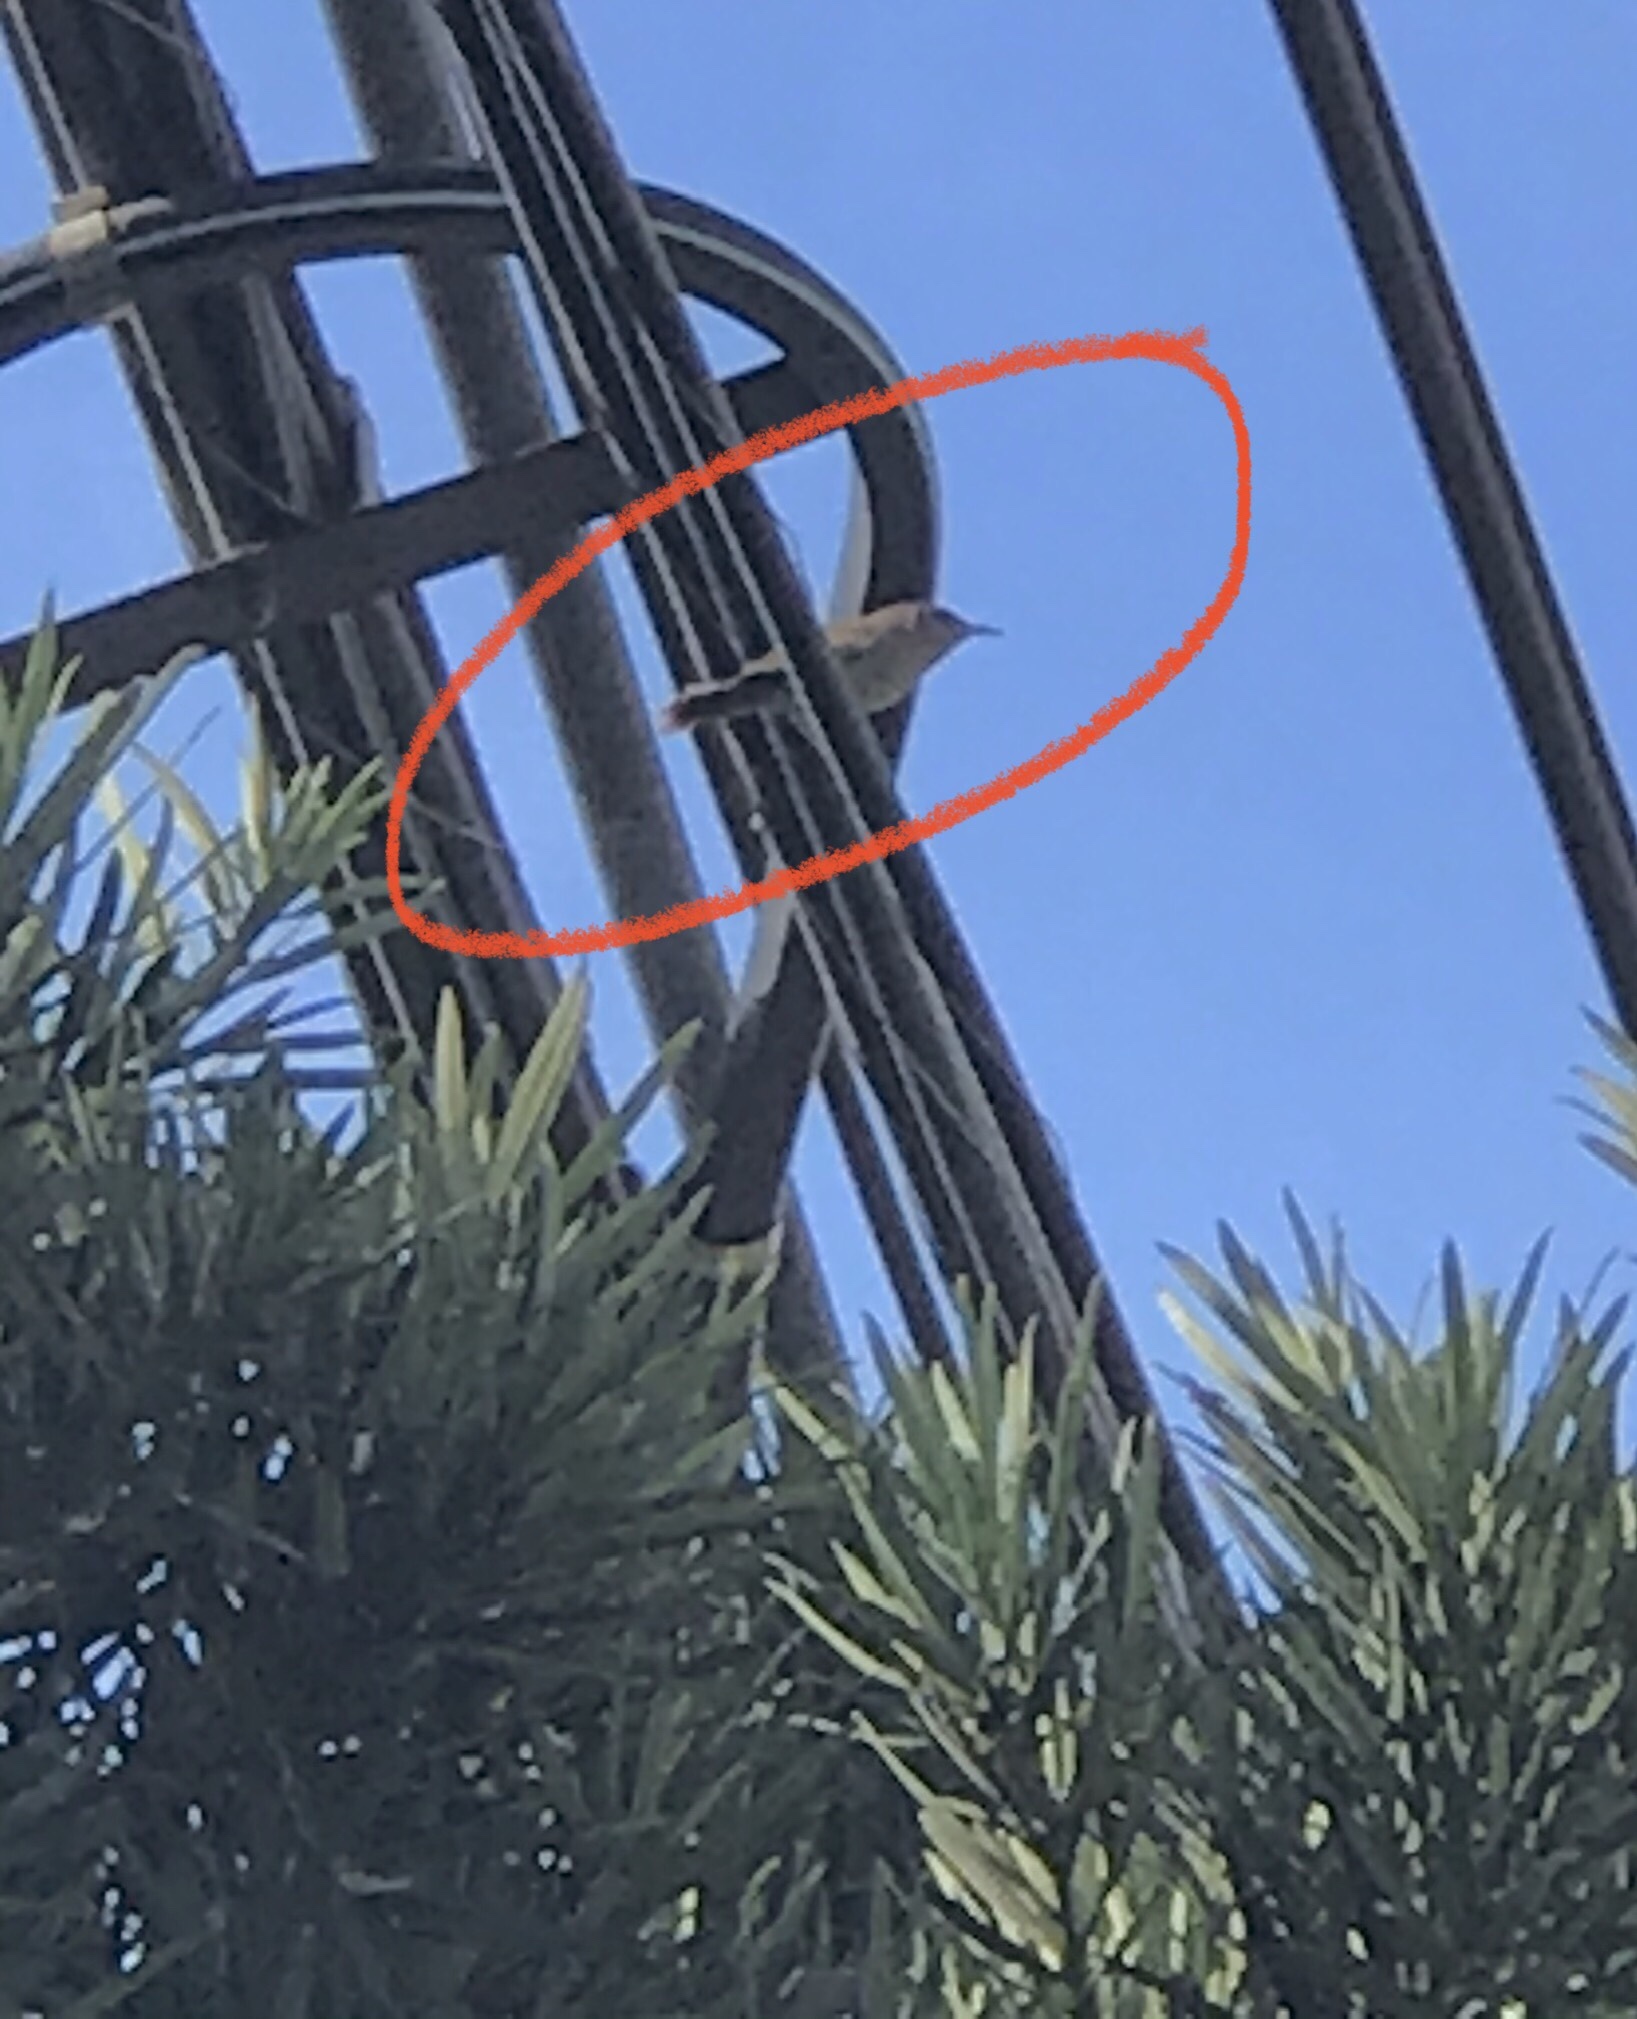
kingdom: Animalia
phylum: Chordata
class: Aves
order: Passeriformes
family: Troglodytidae
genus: Troglodytes
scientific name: Troglodytes aedon
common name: House wren
